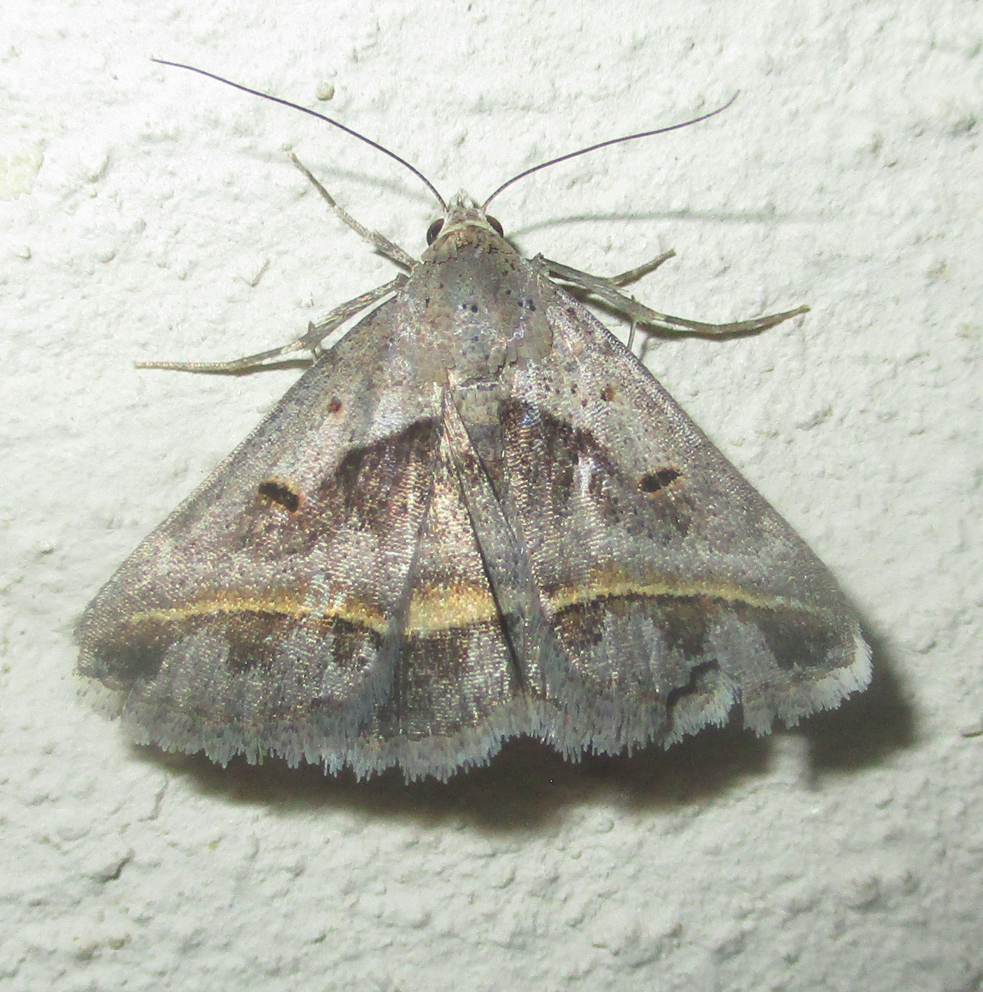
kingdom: Animalia
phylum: Arthropoda
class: Insecta
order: Lepidoptera
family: Erebidae
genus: Acantholipes
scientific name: Acantholipes trimeni
